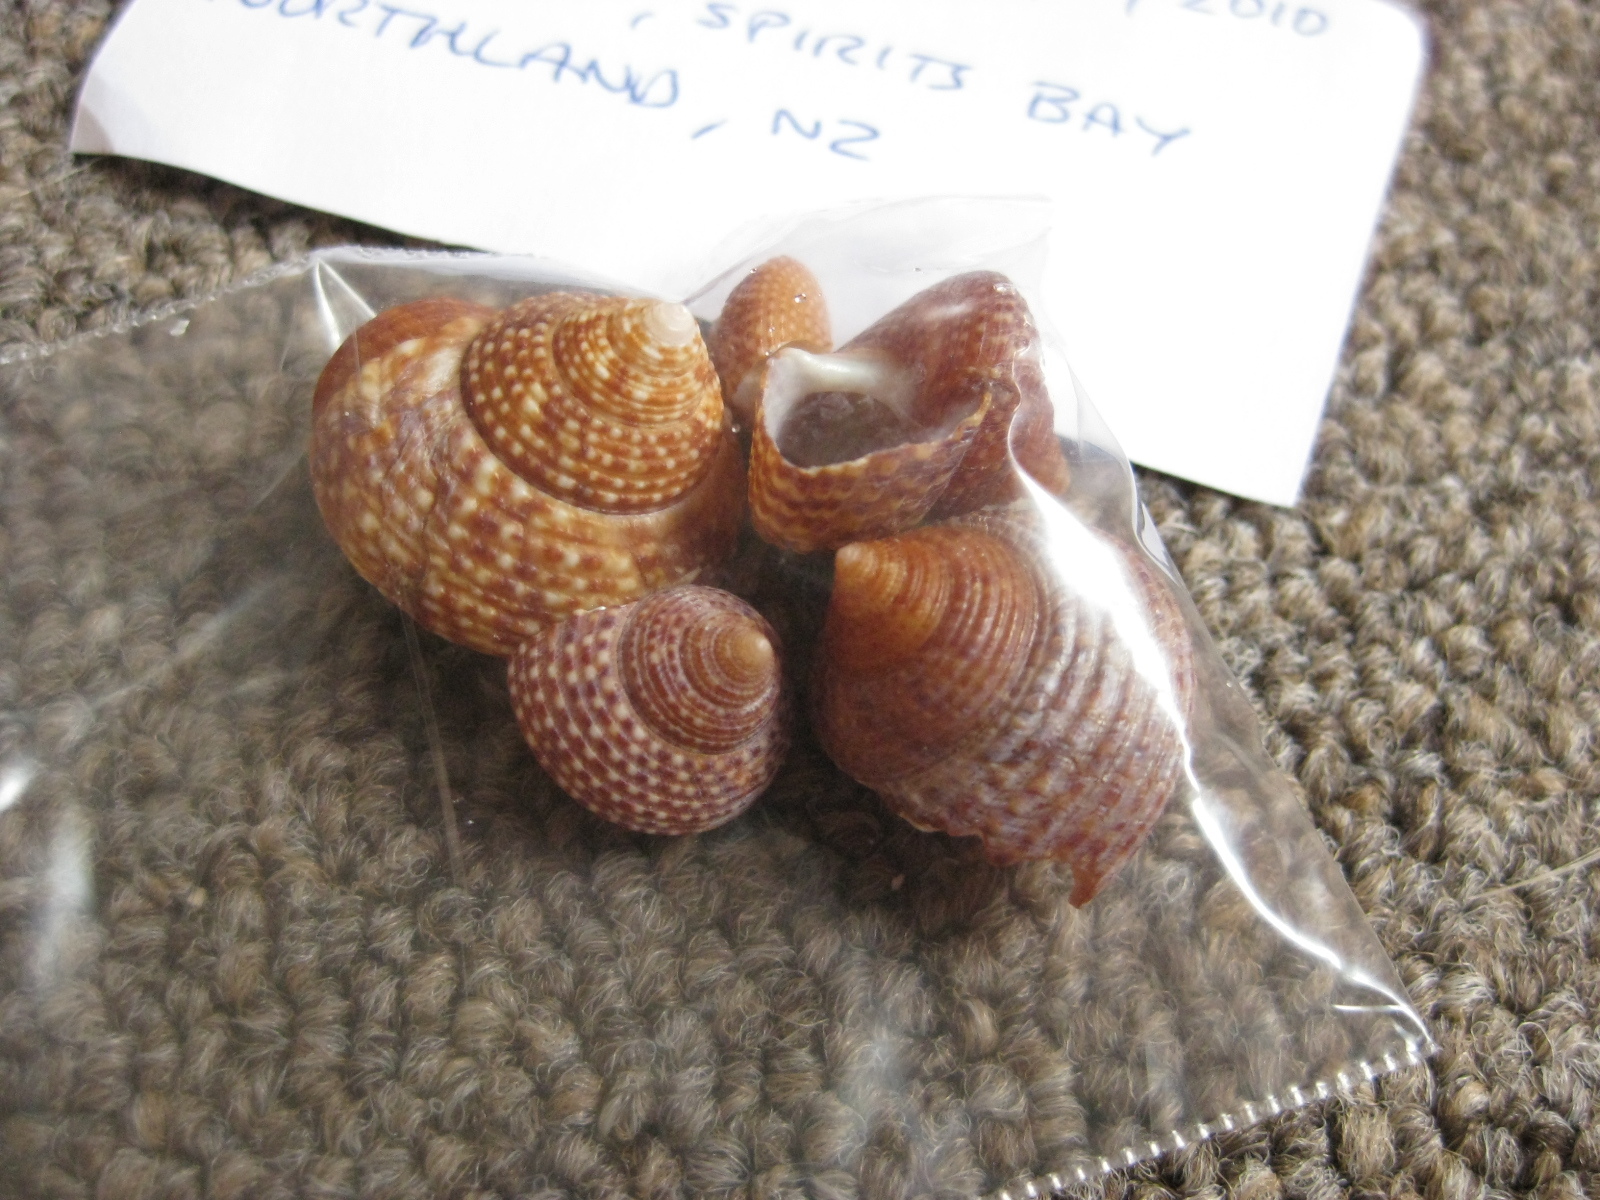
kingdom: Animalia
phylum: Mollusca
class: Gastropoda
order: Trochida
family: Calliostomatidae
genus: Maurea
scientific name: Maurea punctulata
